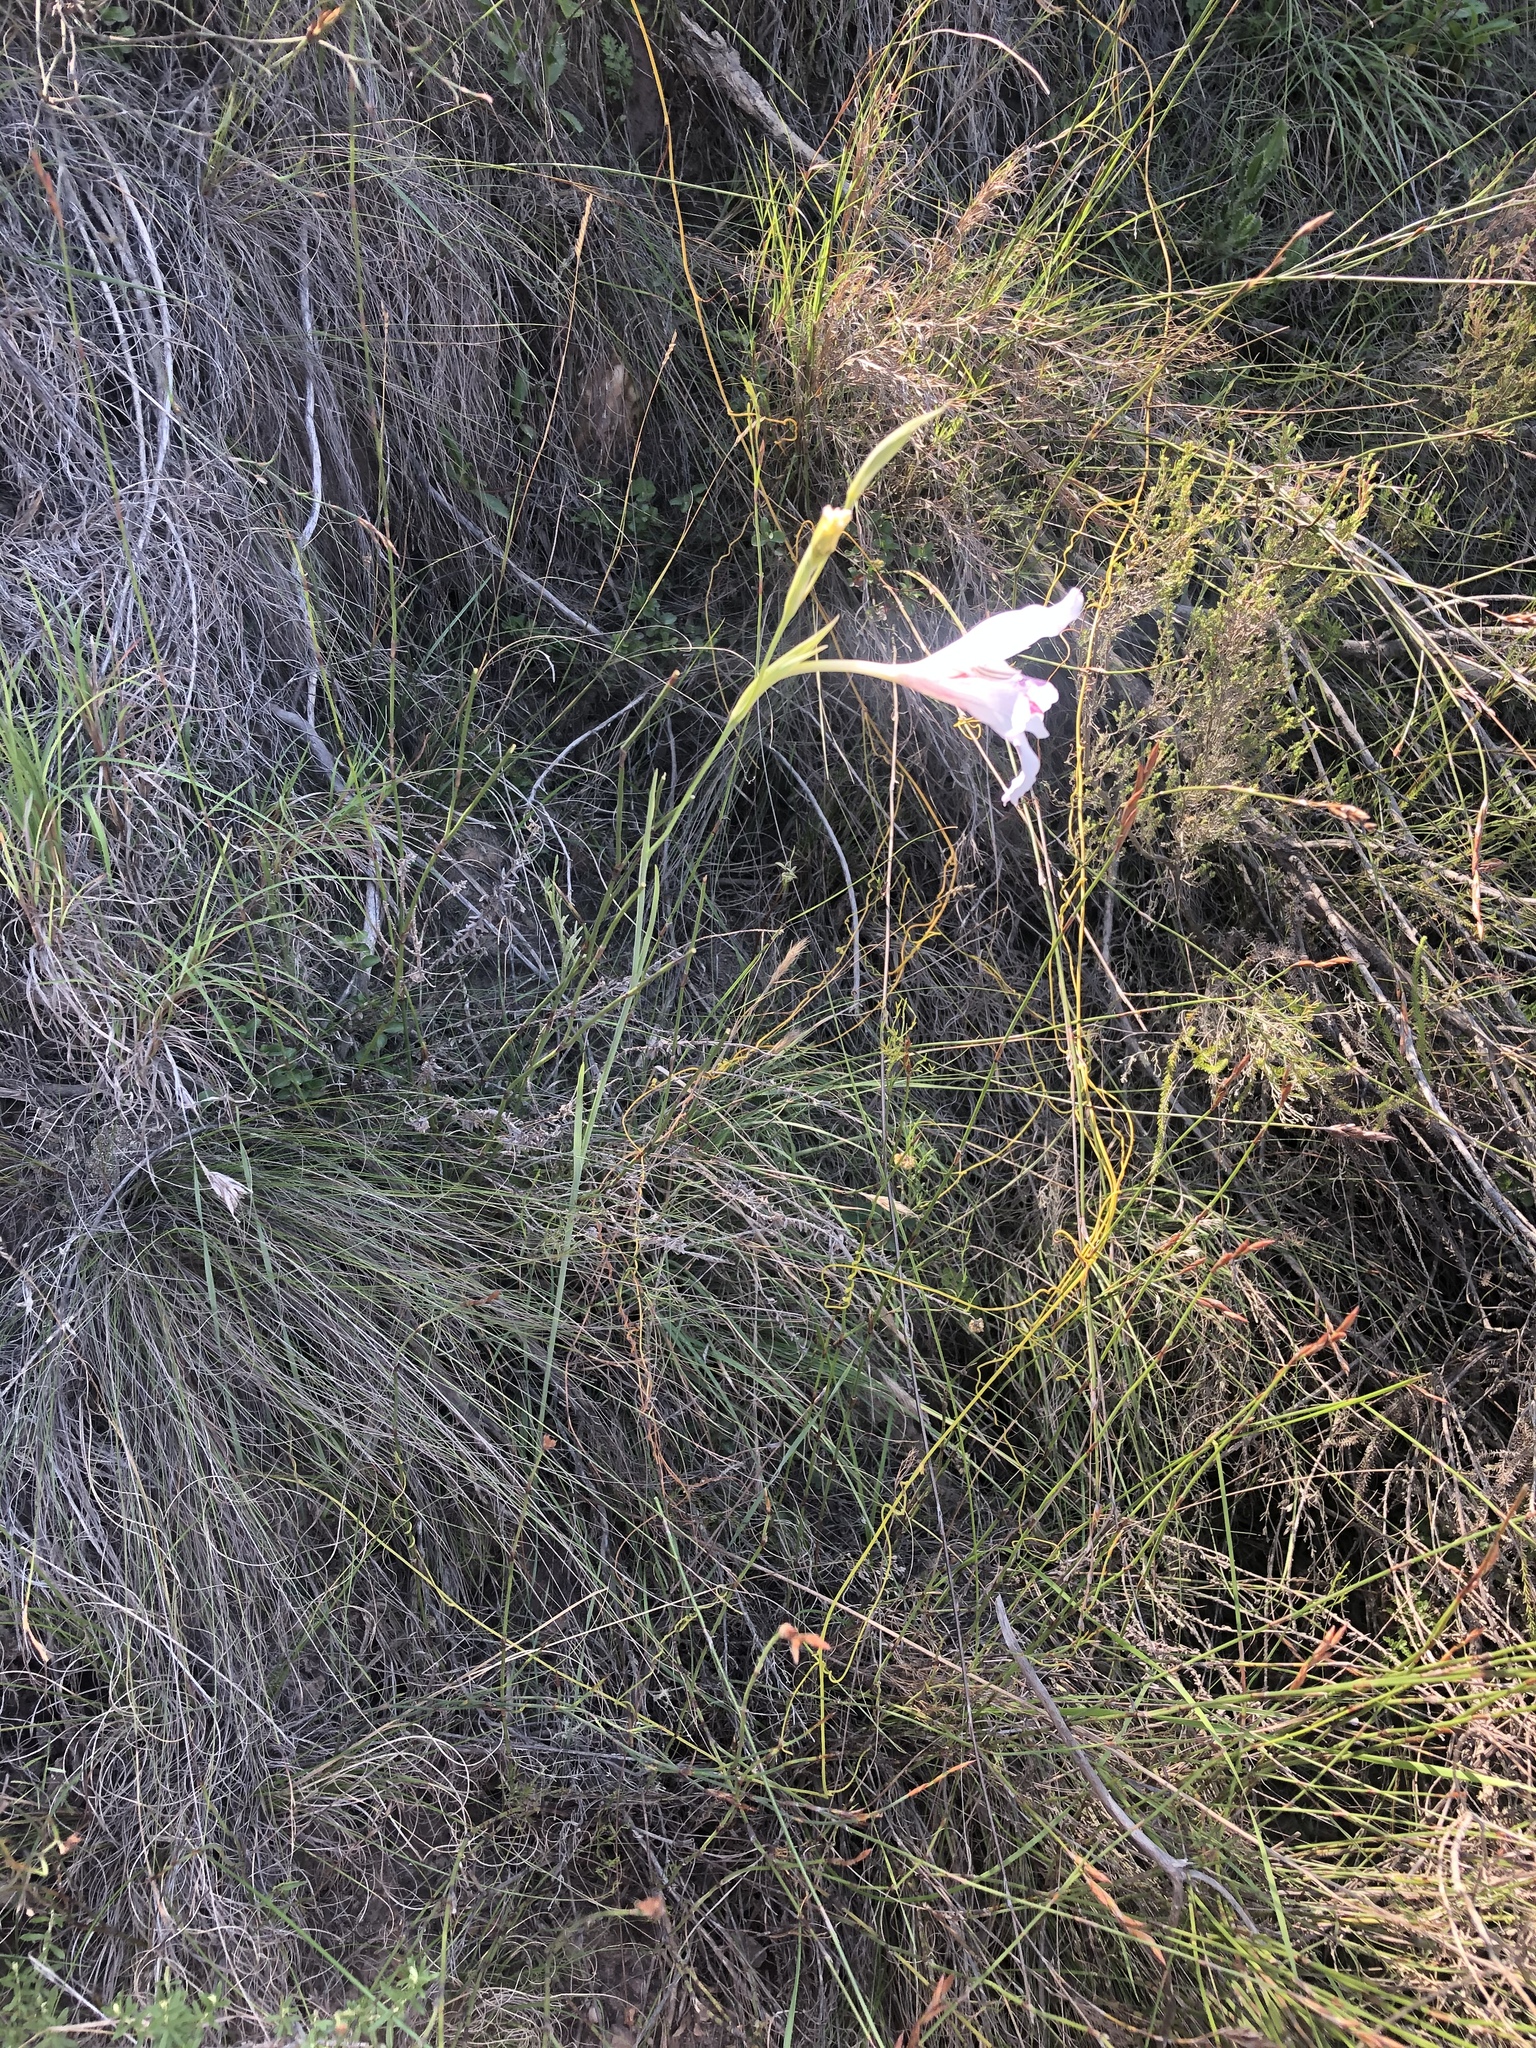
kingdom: Plantae
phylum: Tracheophyta
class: Liliopsida
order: Asparagales
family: Iridaceae
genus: Gladiolus
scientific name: Gladiolus roseovenosus
